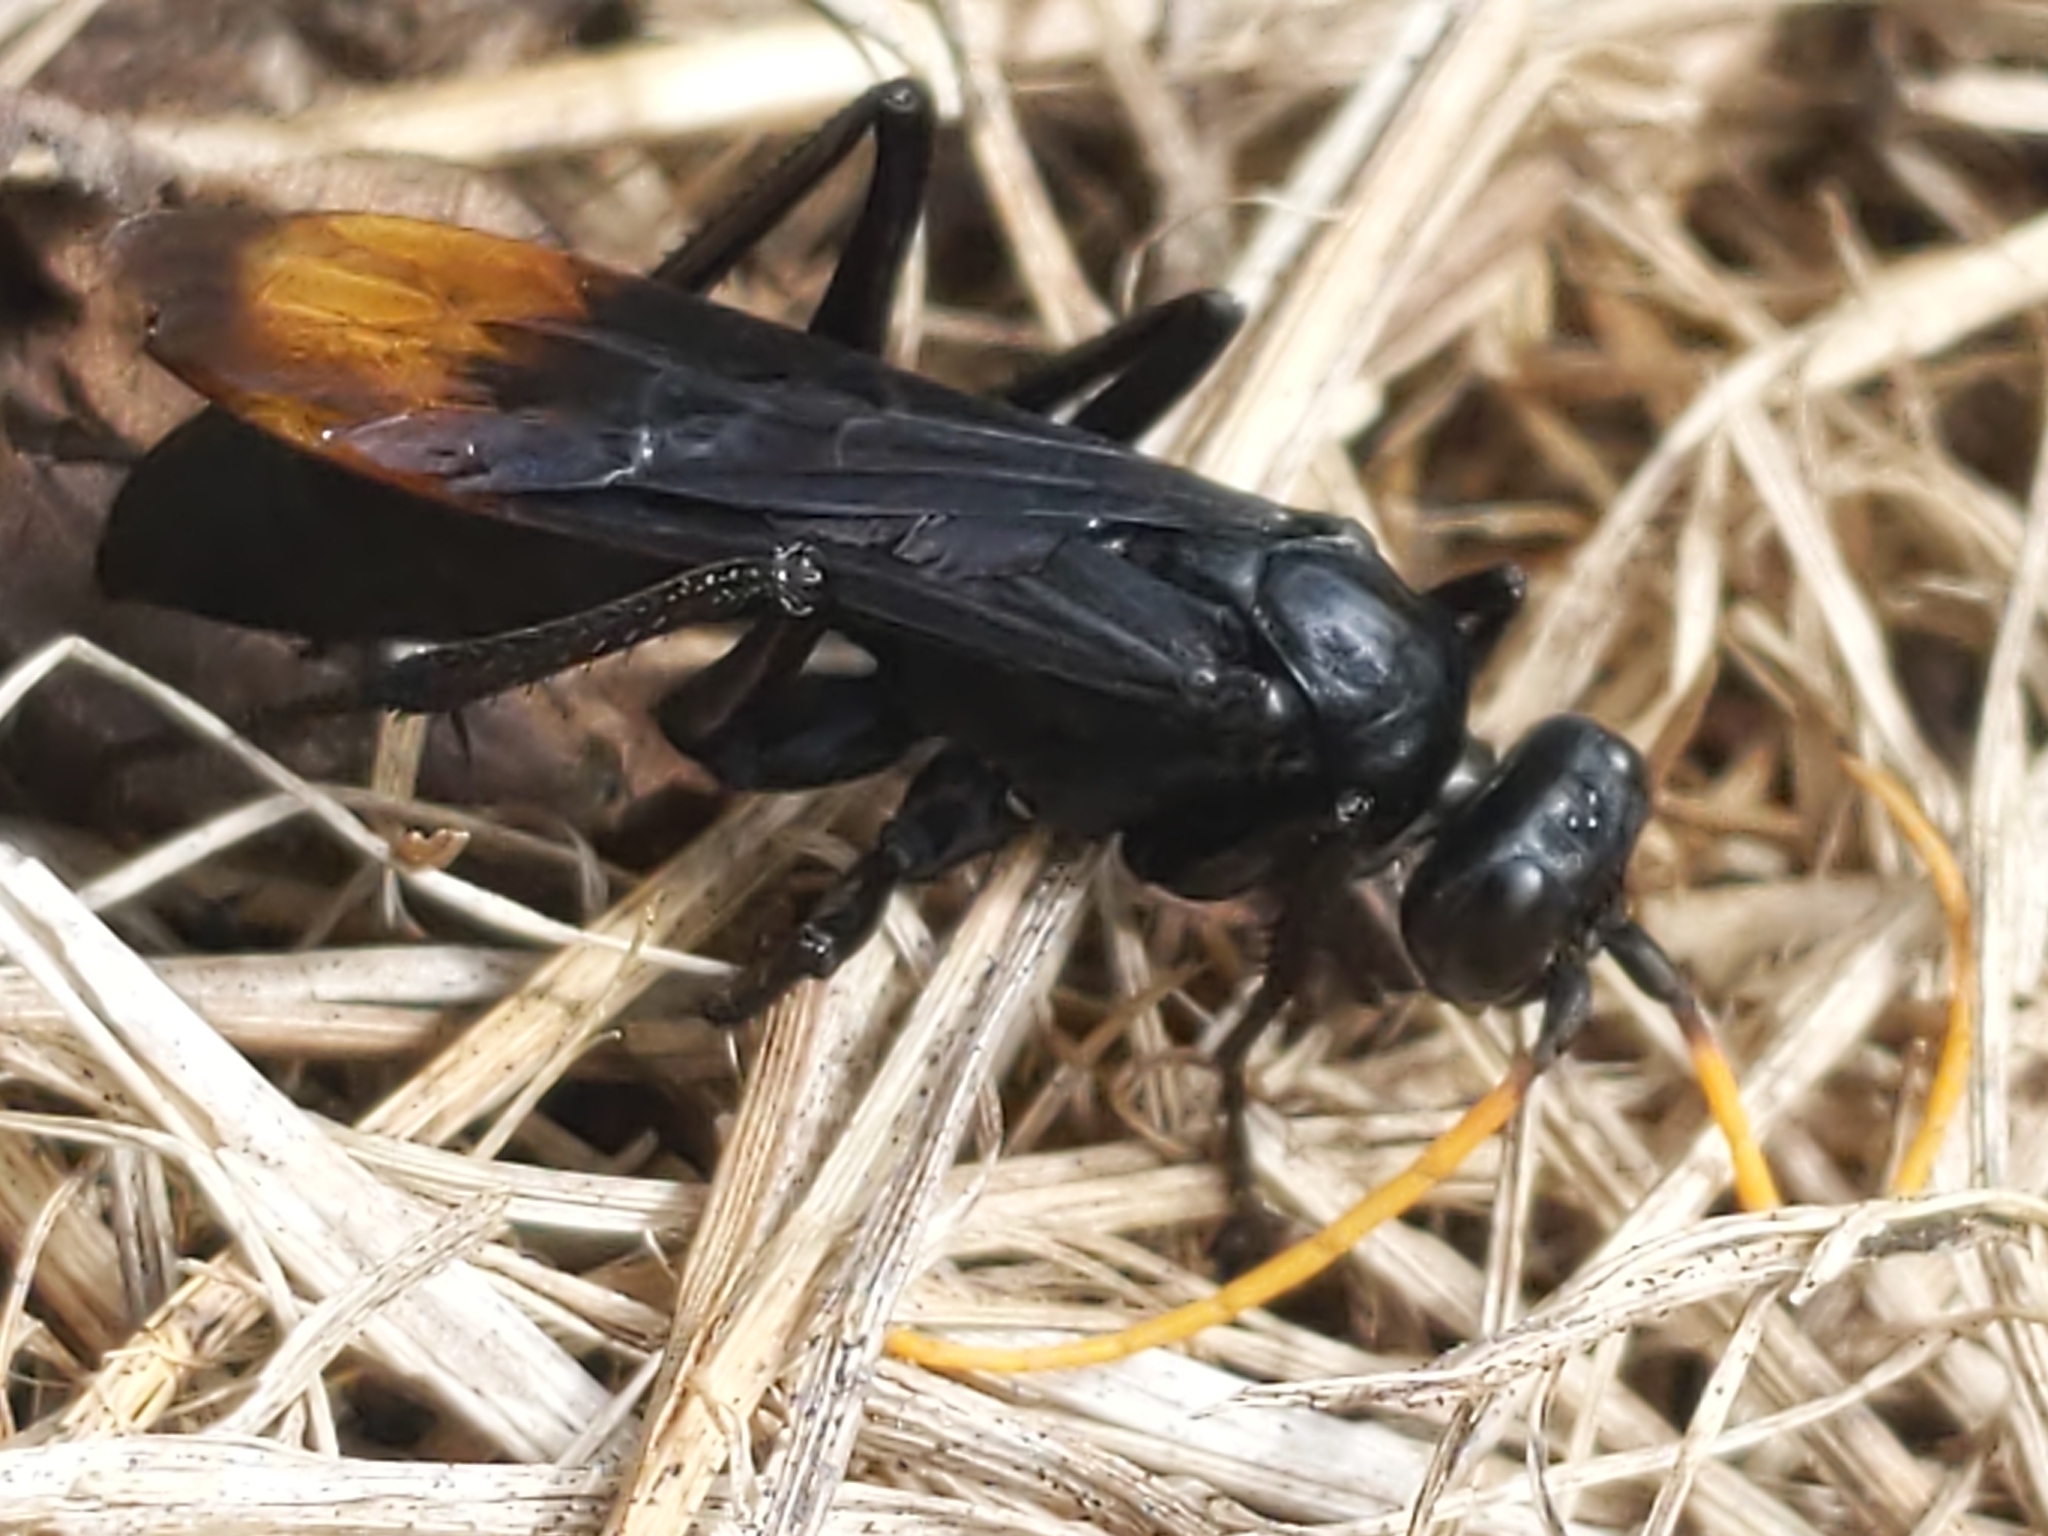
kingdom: Animalia
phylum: Arthropoda
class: Insecta
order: Hymenoptera
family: Pompilidae
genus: Entypus
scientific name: Entypus unifasciatus
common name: Eastern tawny-horned spider wasp
